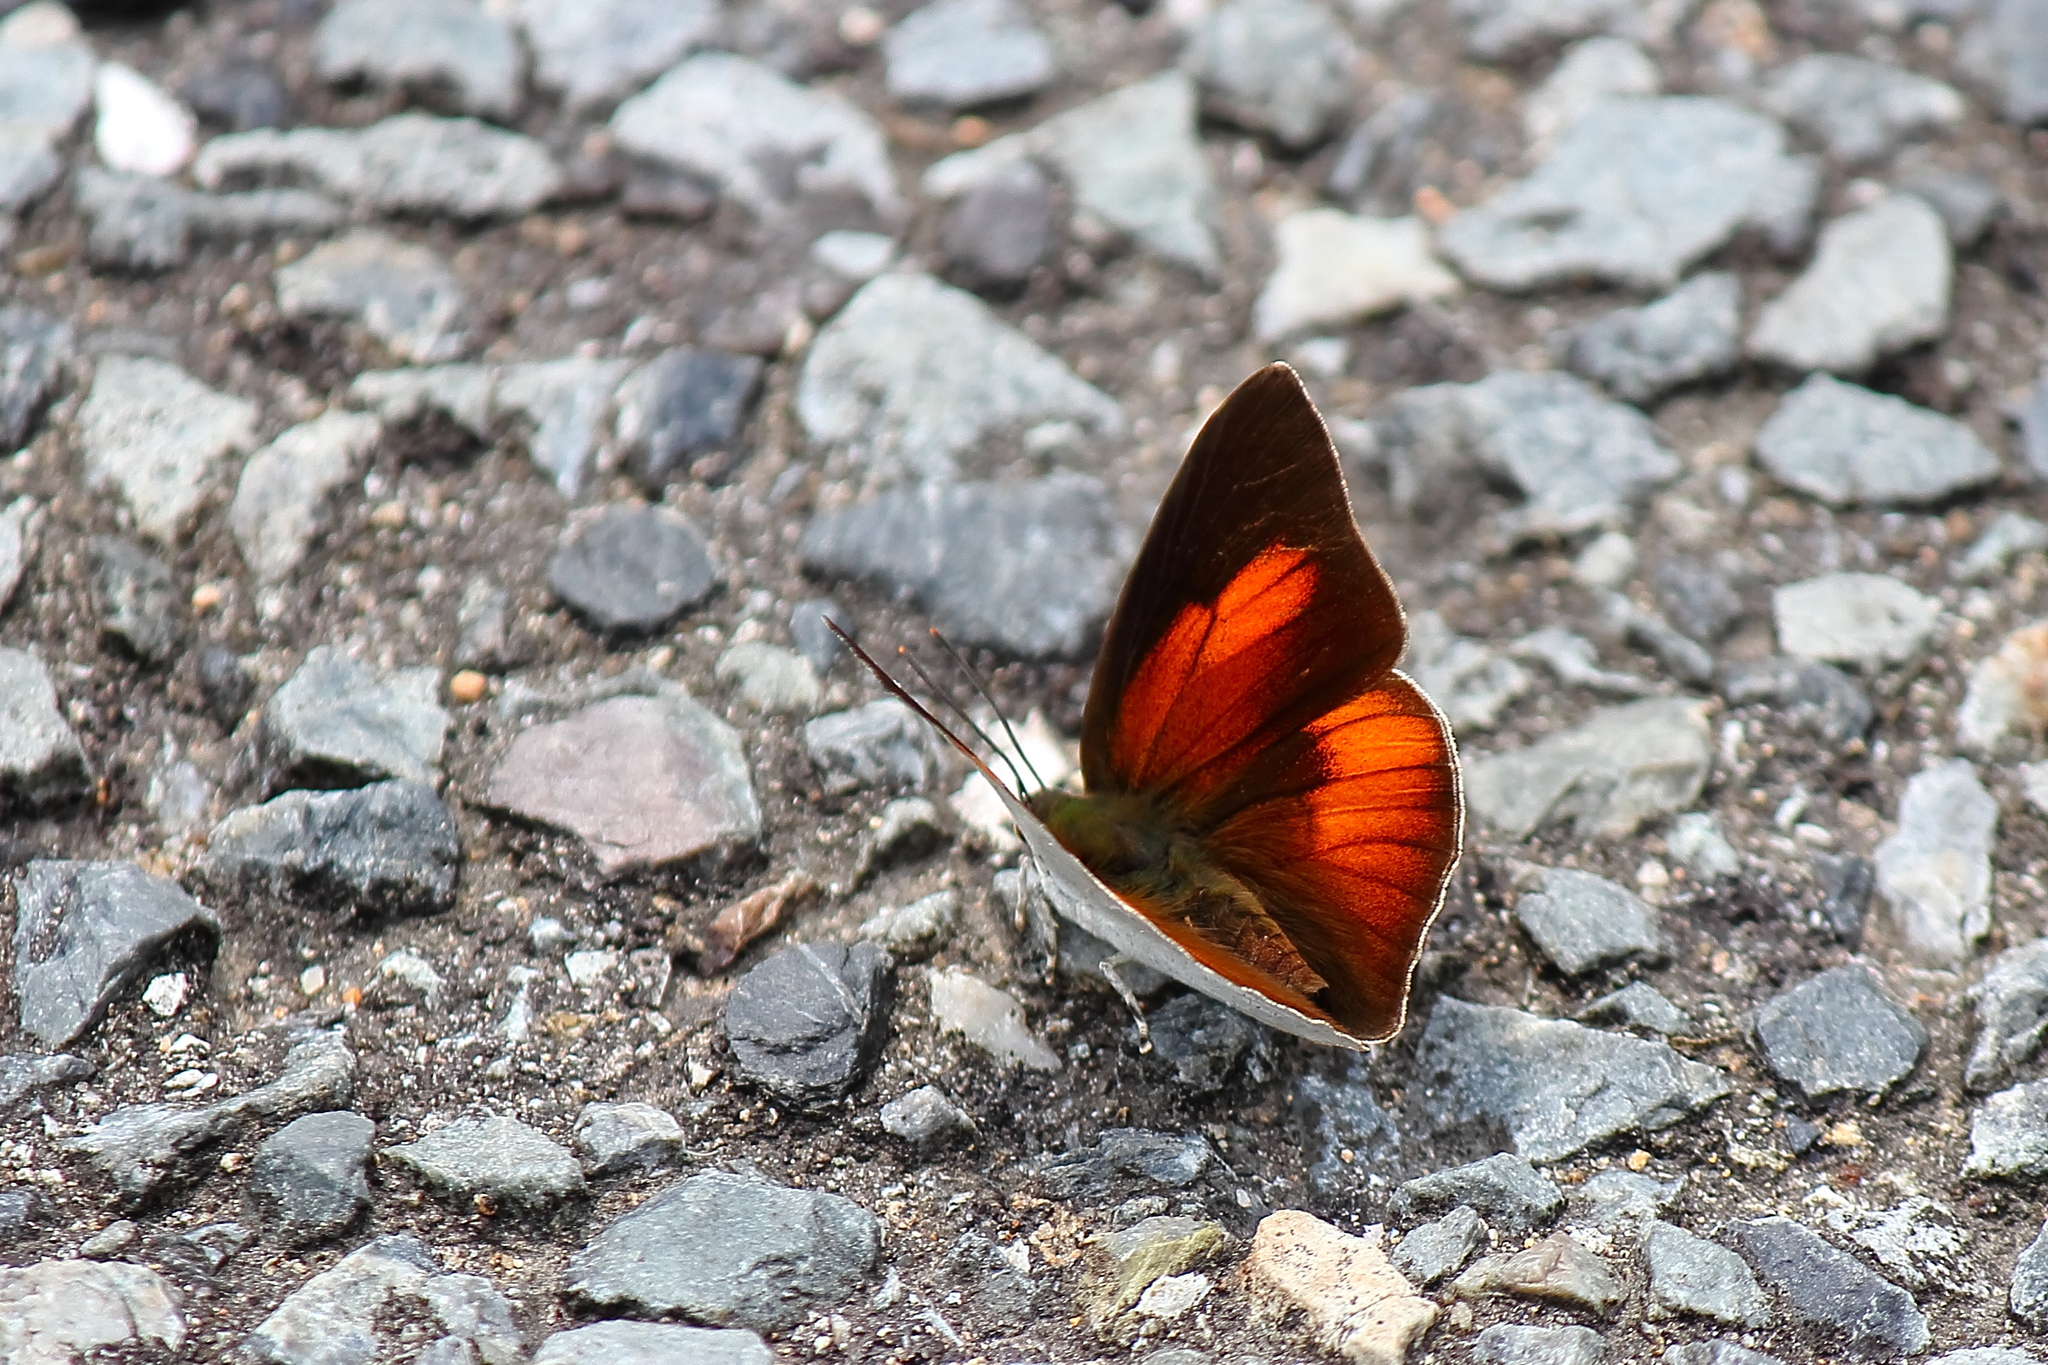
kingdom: Animalia
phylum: Arthropoda
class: Insecta
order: Lepidoptera
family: Lycaenidae
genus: Curetis
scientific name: Curetis acuta
